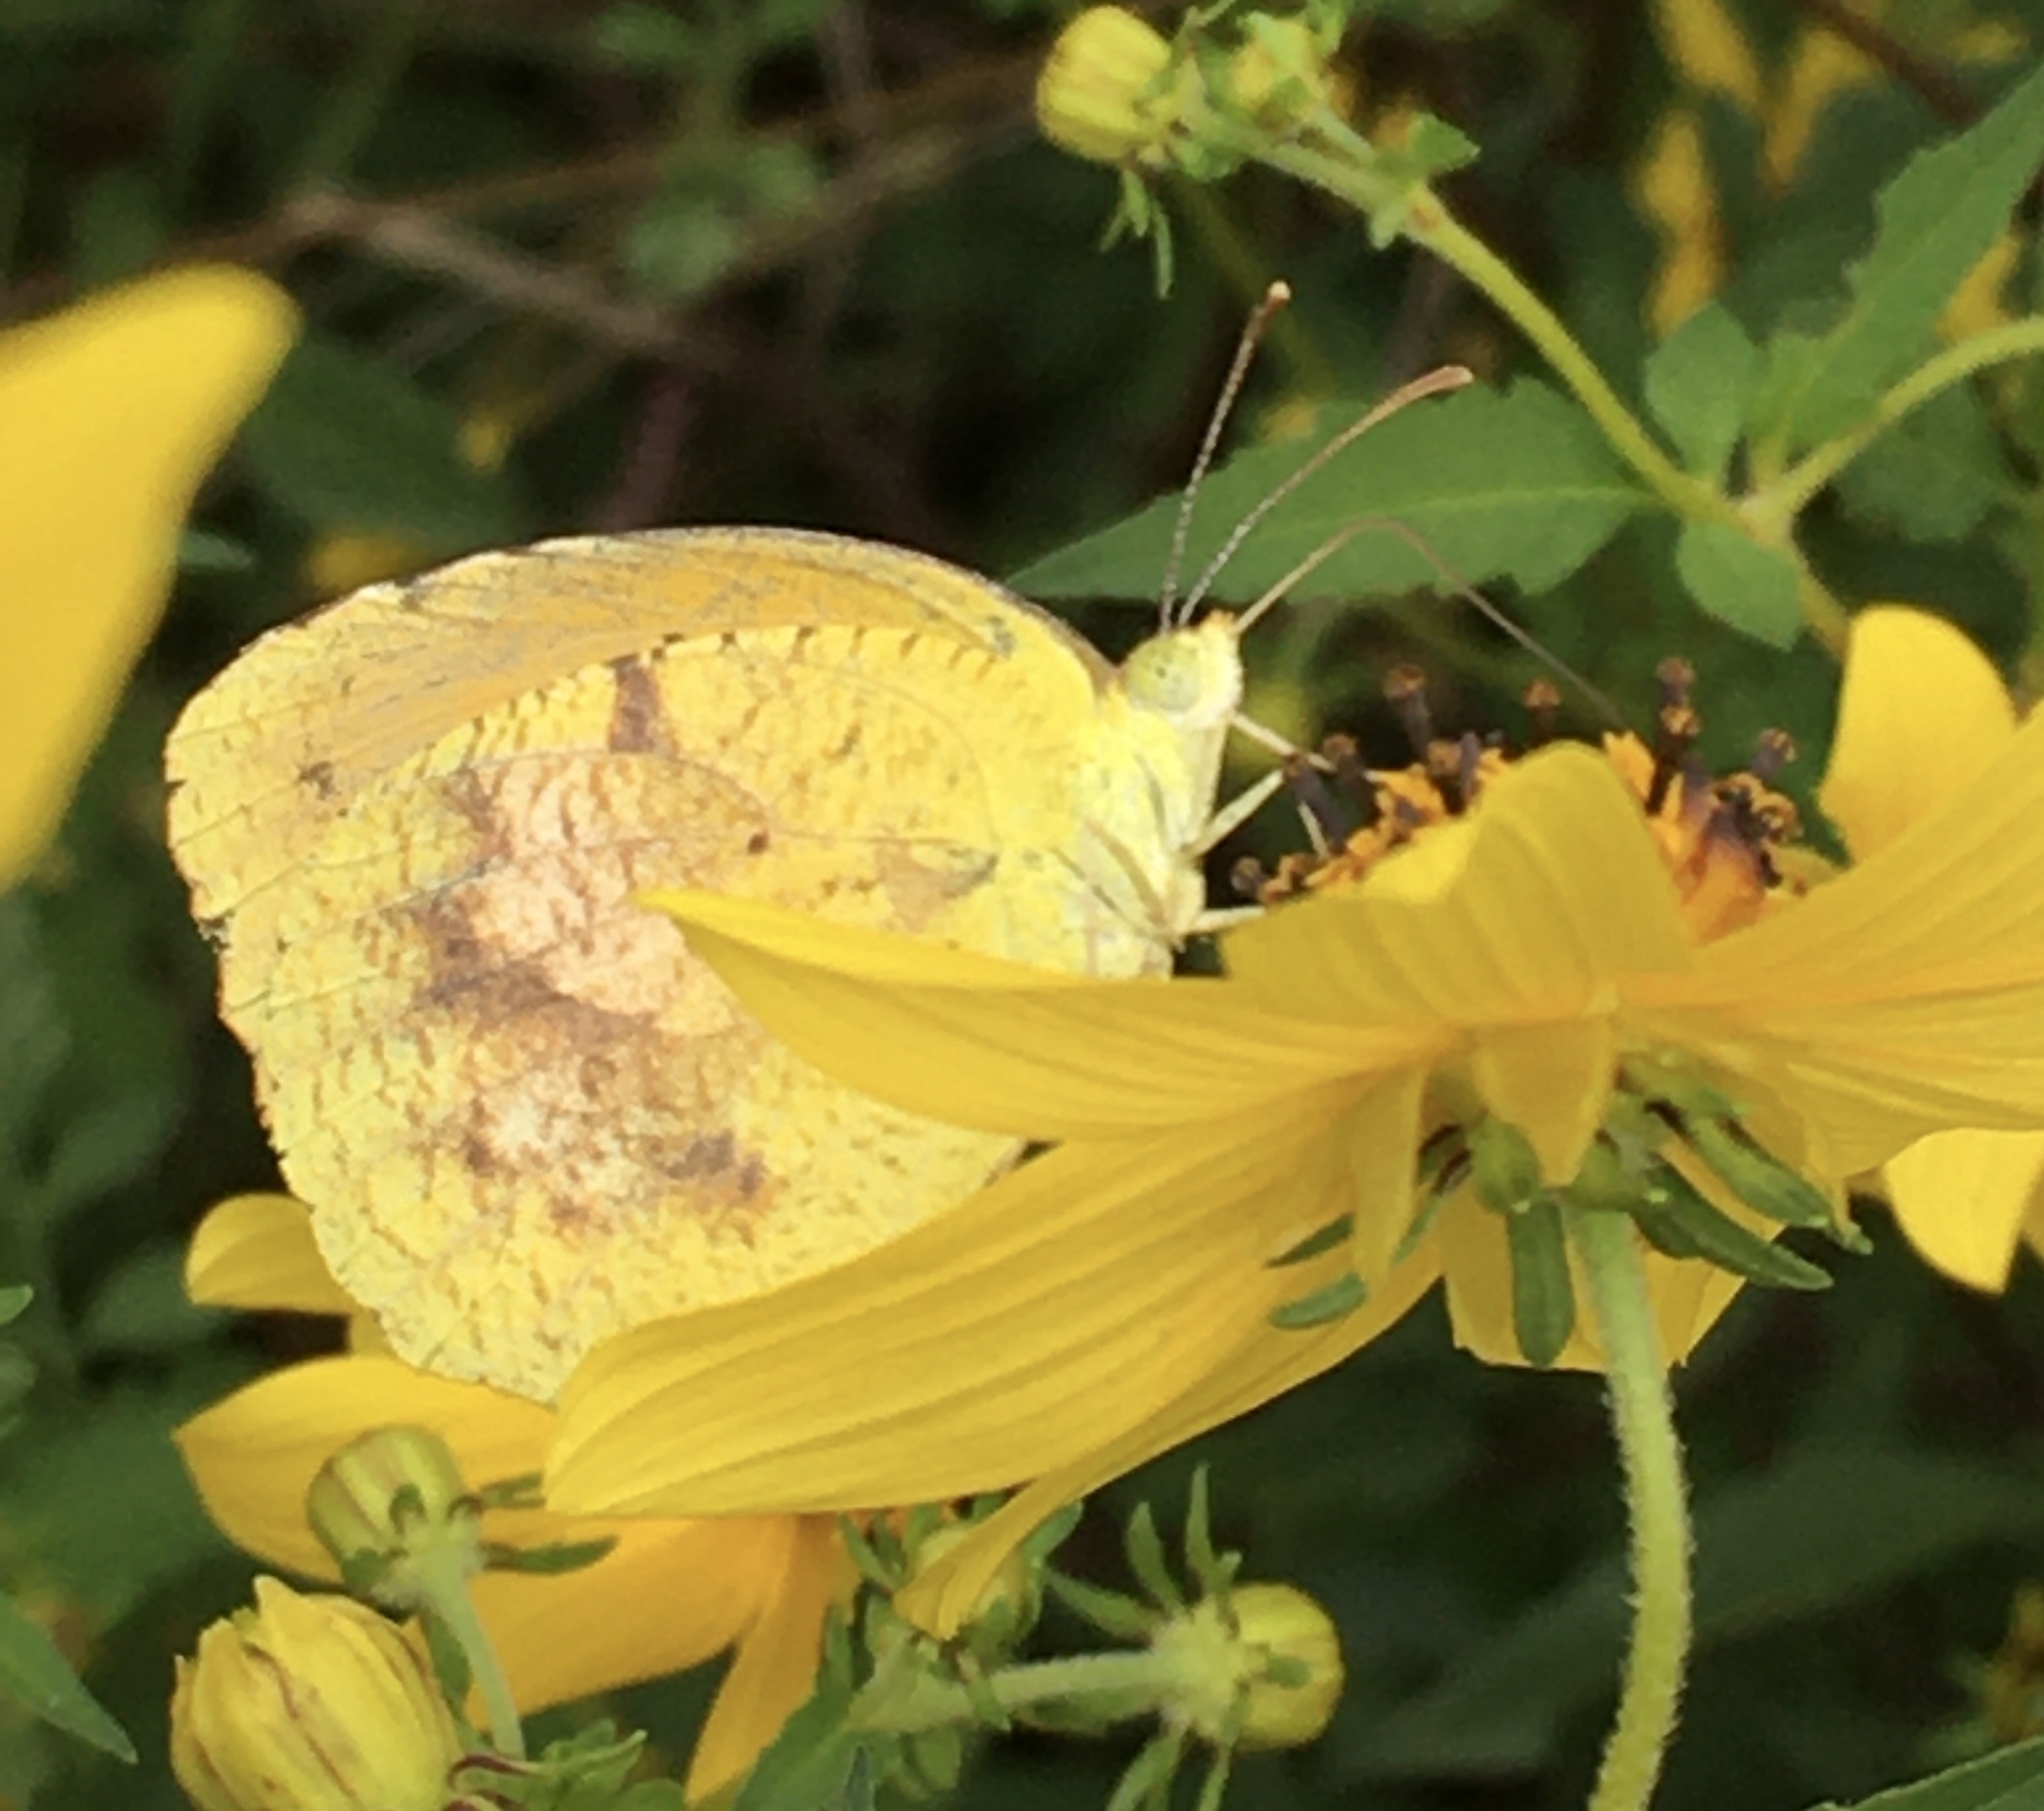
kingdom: Animalia
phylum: Arthropoda
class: Insecta
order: Lepidoptera
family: Pieridae
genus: Abaeis
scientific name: Abaeis nicippe
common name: Sleepy orange
